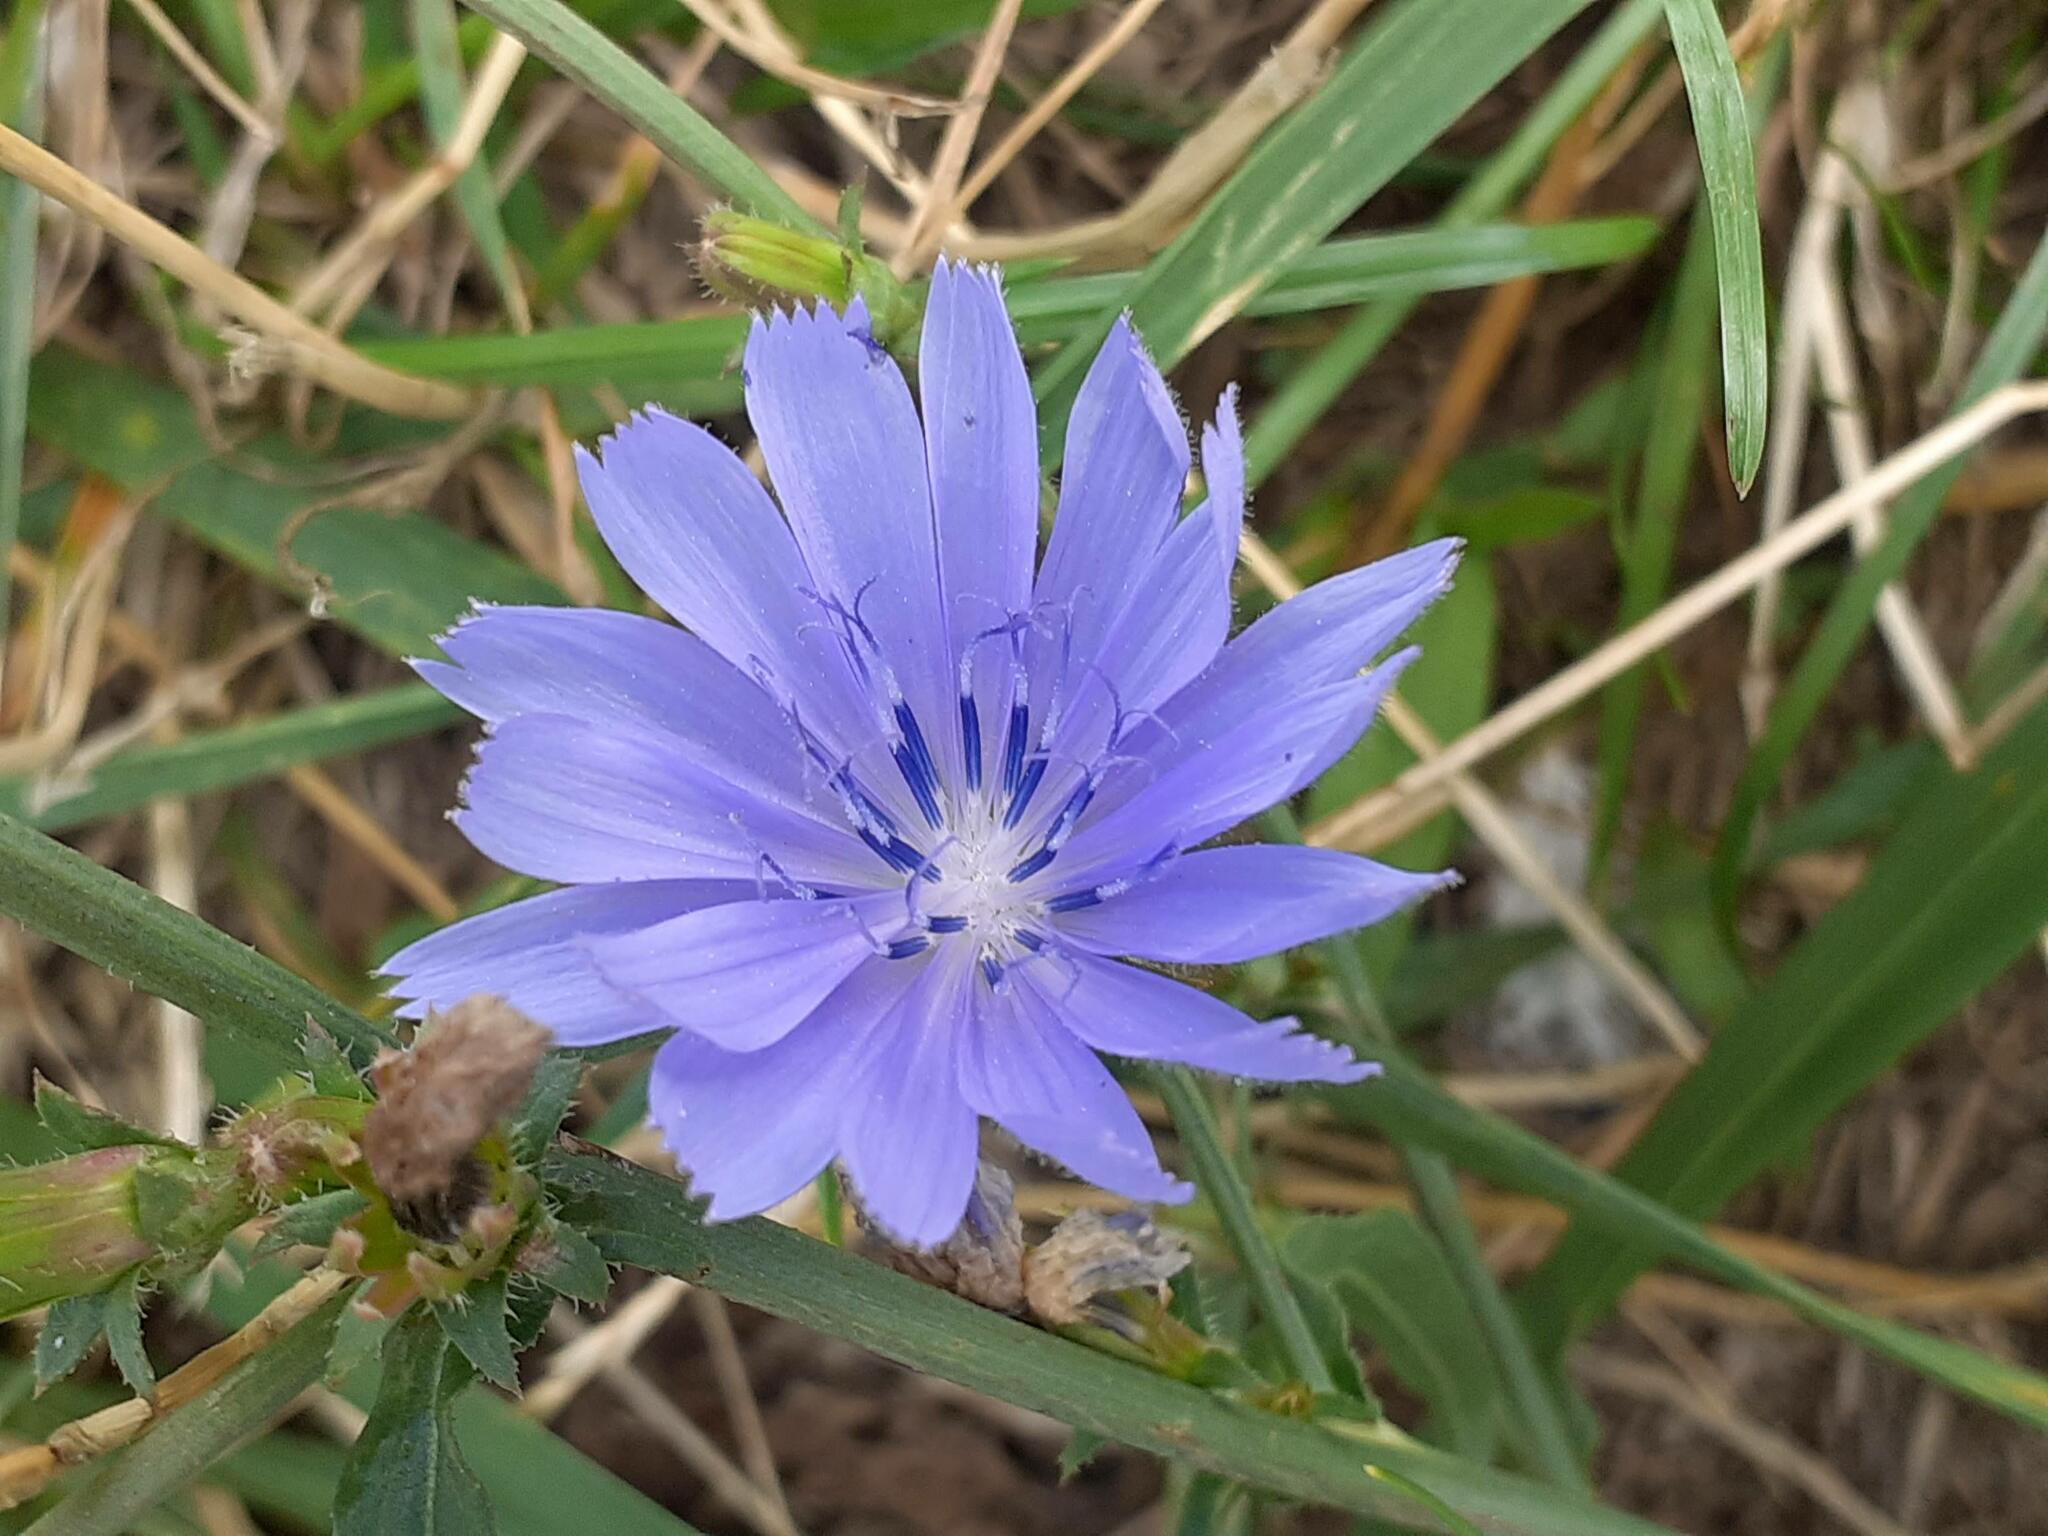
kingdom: Plantae
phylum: Tracheophyta
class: Magnoliopsida
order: Asterales
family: Asteraceae
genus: Cichorium
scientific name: Cichorium intybus
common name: Chicory
